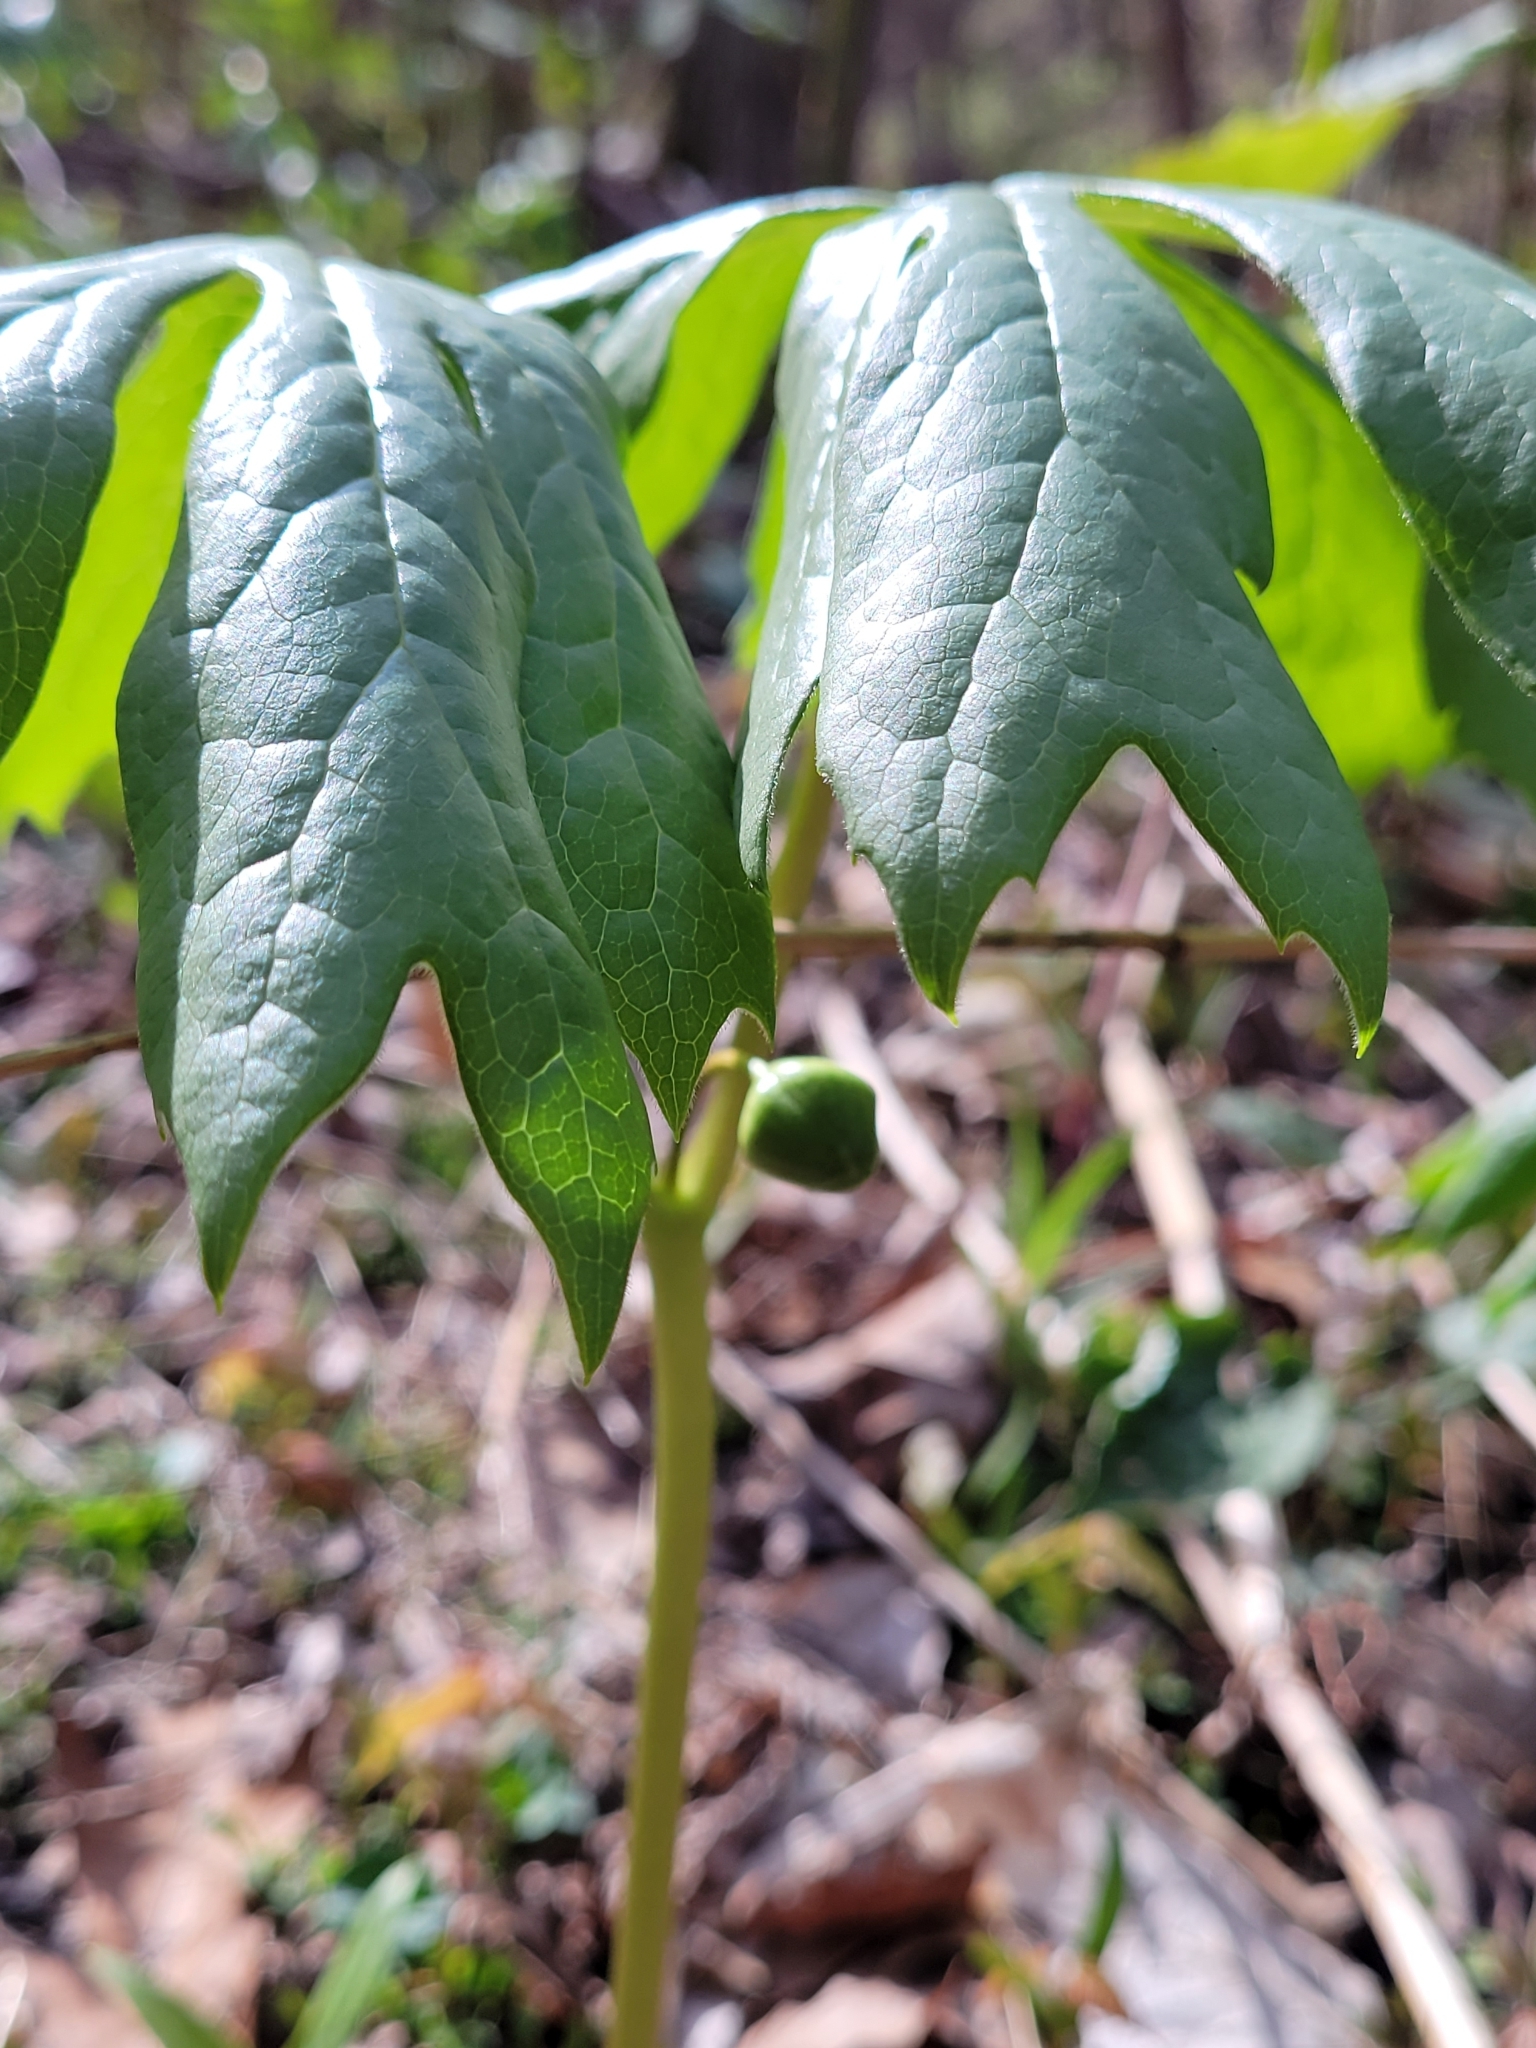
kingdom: Plantae
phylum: Tracheophyta
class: Magnoliopsida
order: Ranunculales
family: Berberidaceae
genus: Podophyllum
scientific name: Podophyllum peltatum
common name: Wild mandrake
